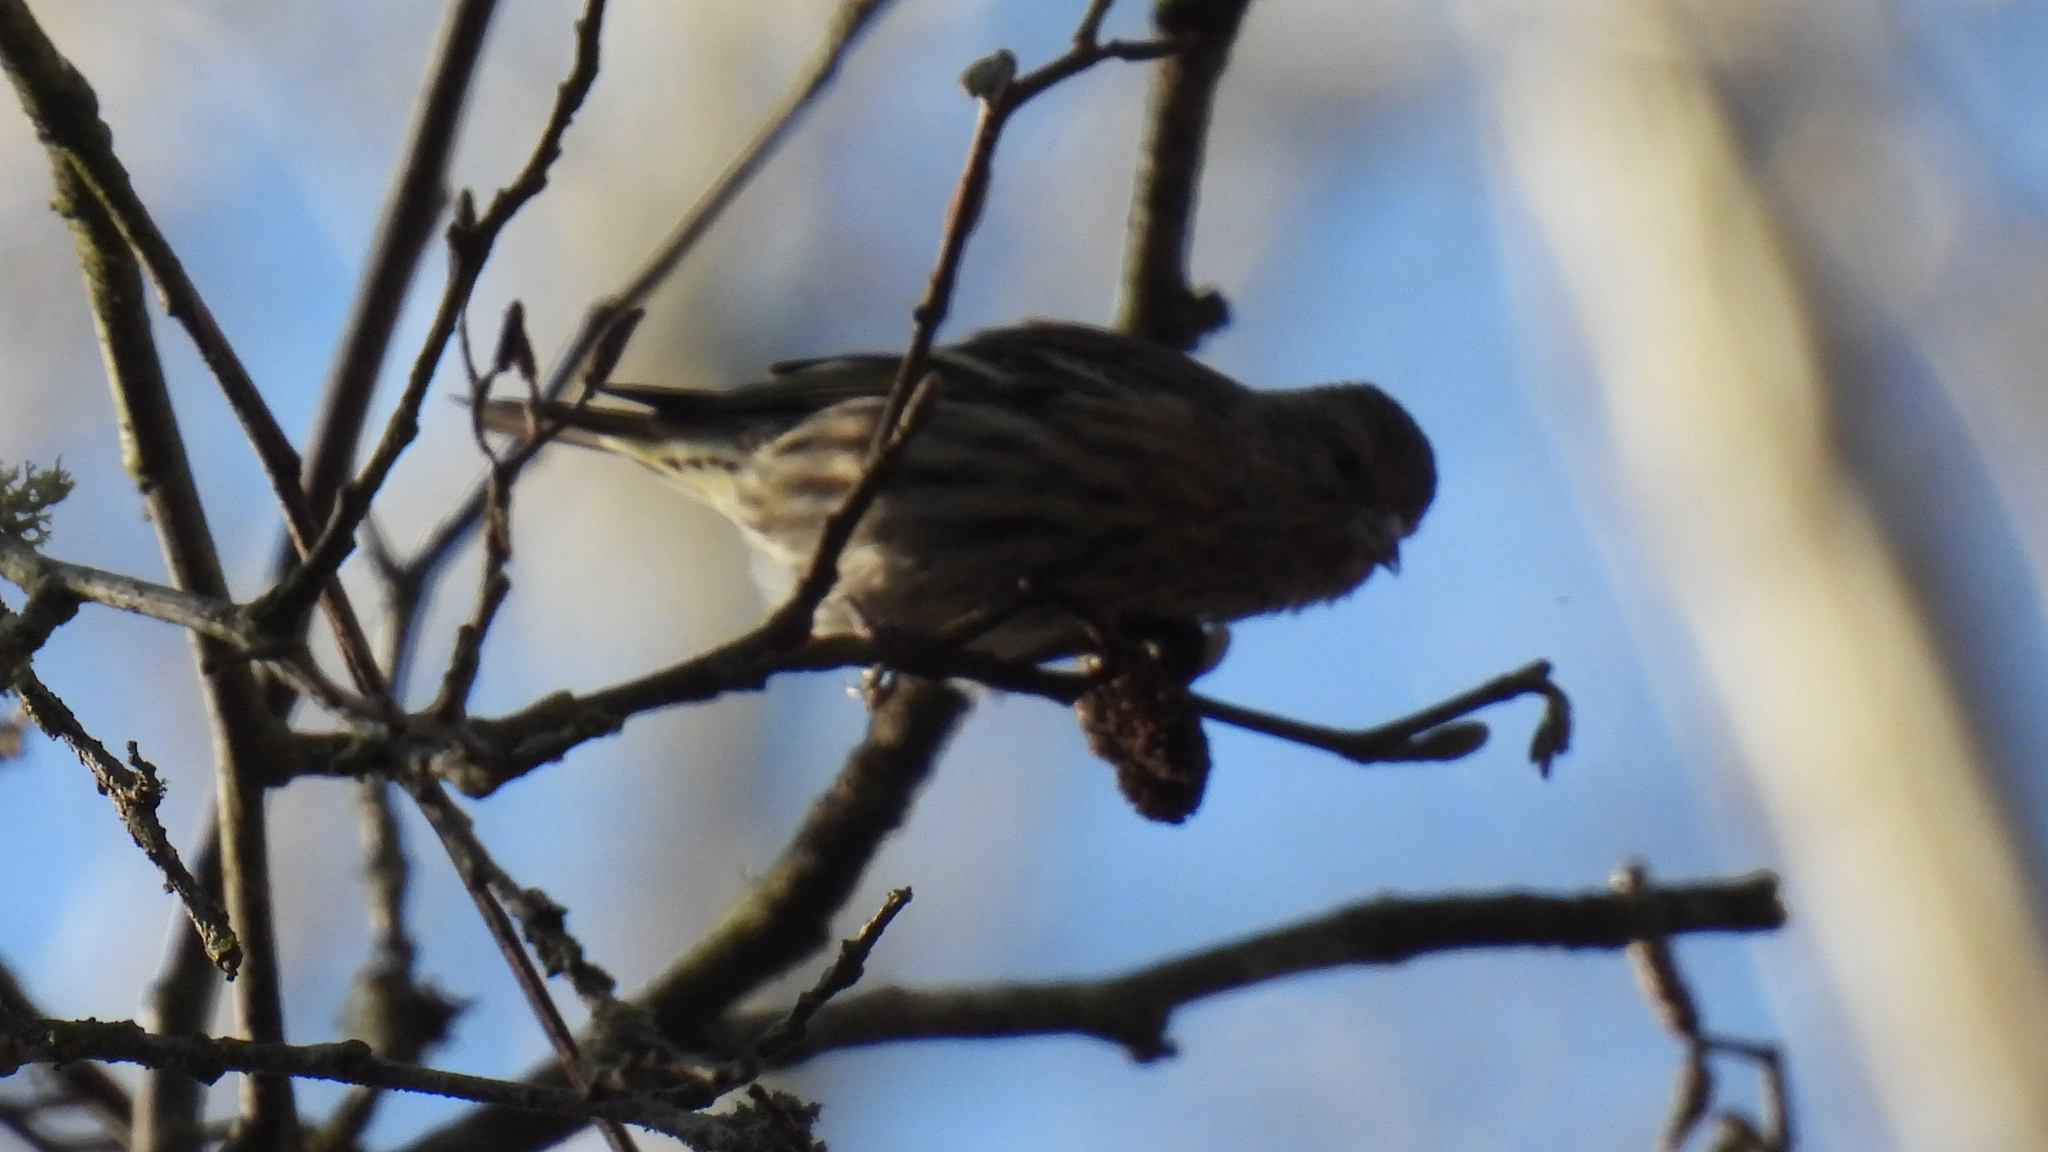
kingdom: Animalia
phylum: Chordata
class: Aves
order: Passeriformes
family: Fringillidae
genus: Spinus
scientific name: Spinus pinus
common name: Pine siskin
